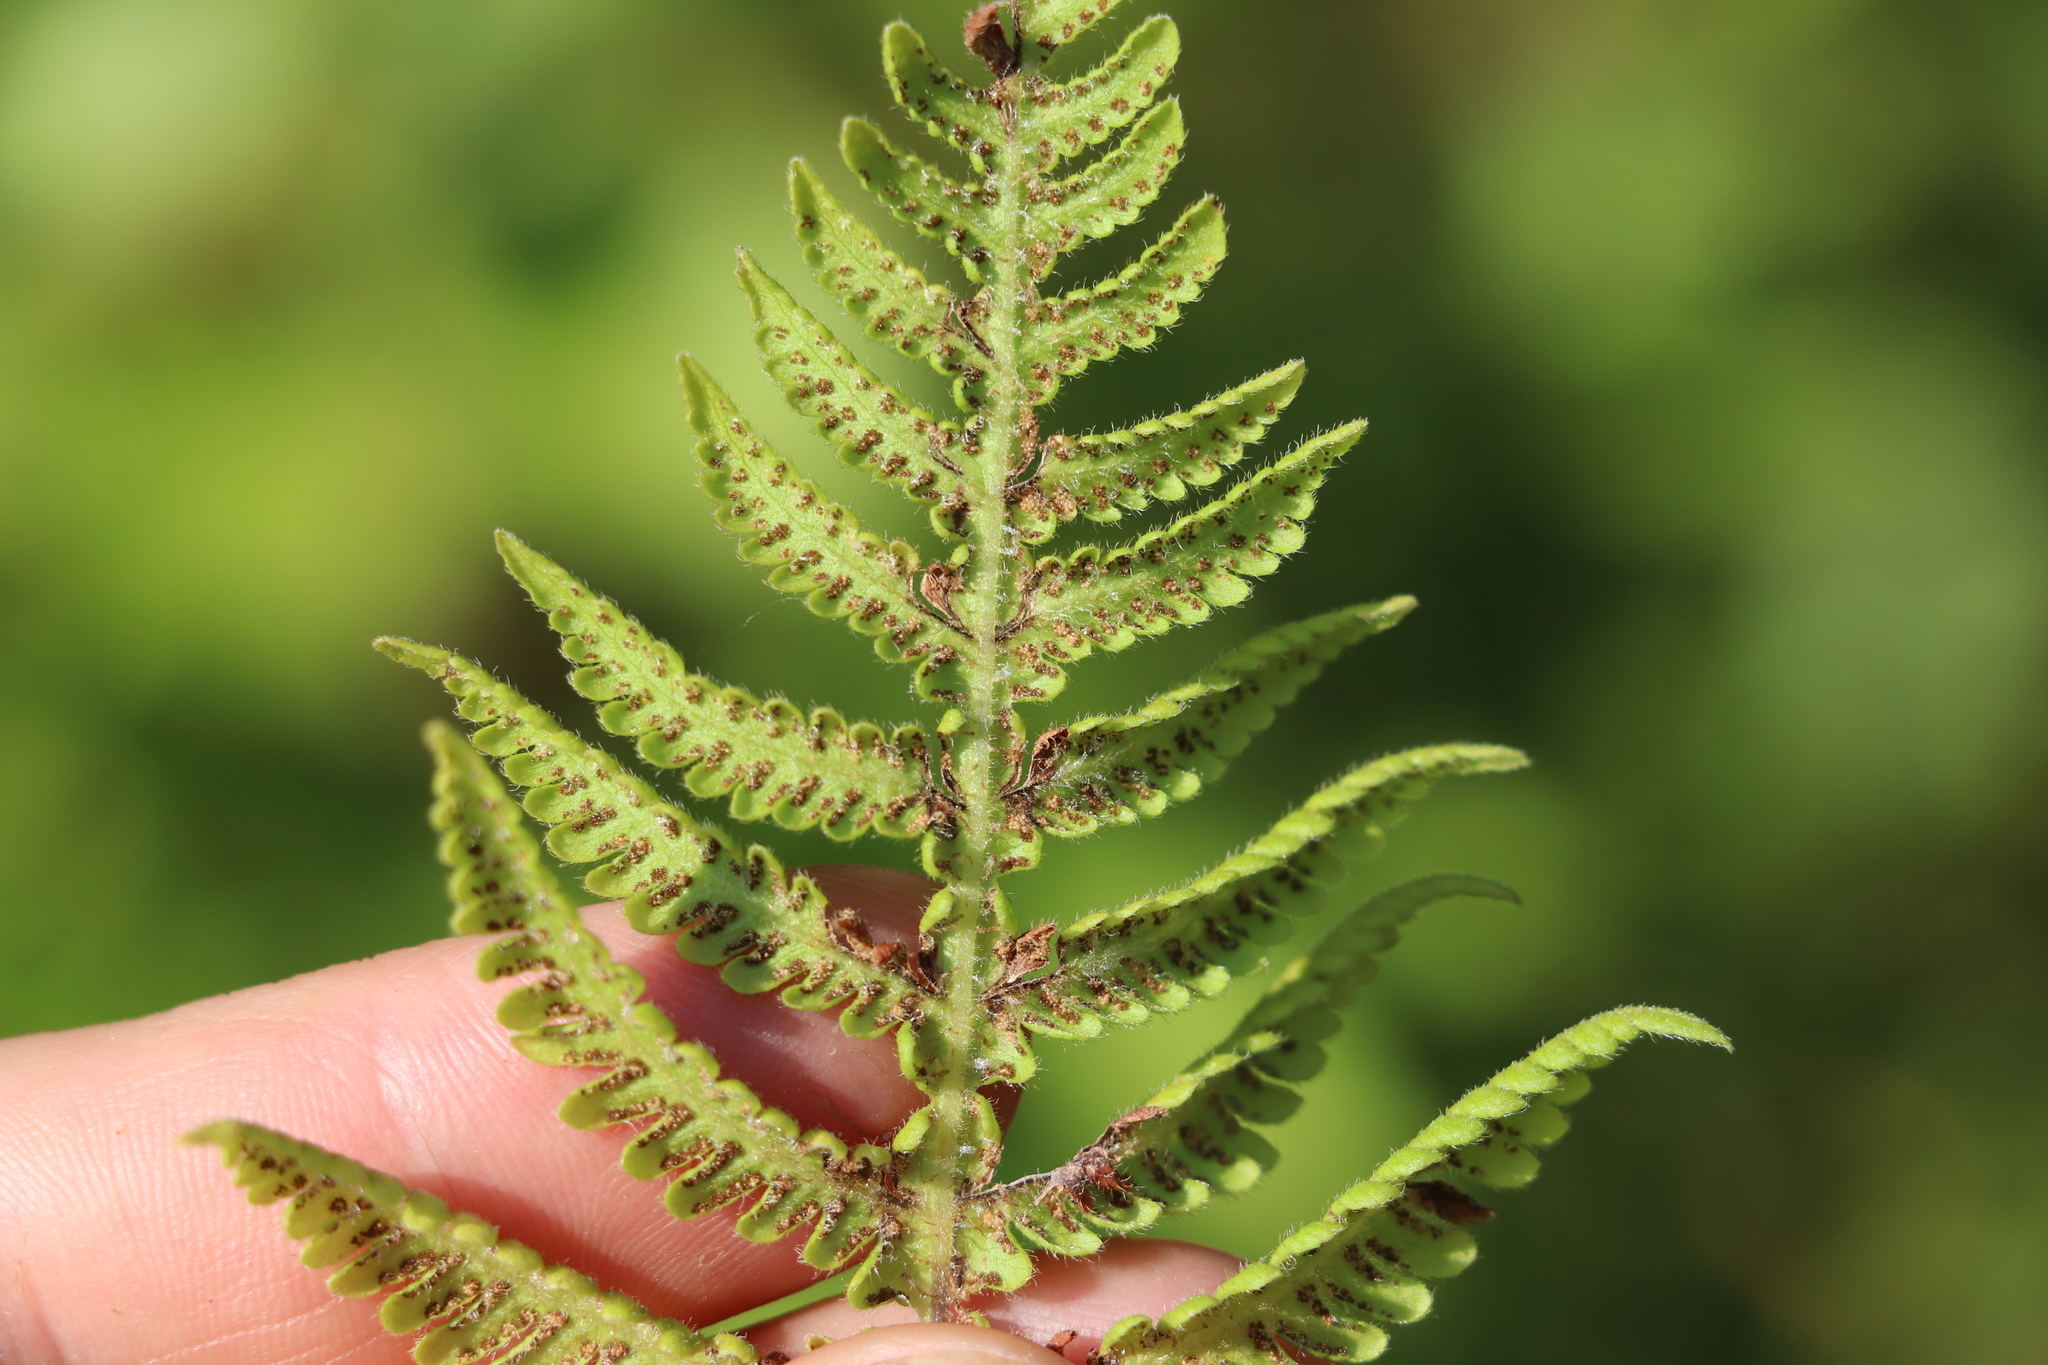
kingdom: Plantae
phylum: Tracheophyta
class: Polypodiopsida
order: Polypodiales
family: Thelypteridaceae
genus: Phegopteris
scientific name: Phegopteris connectilis
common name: Beech fern
